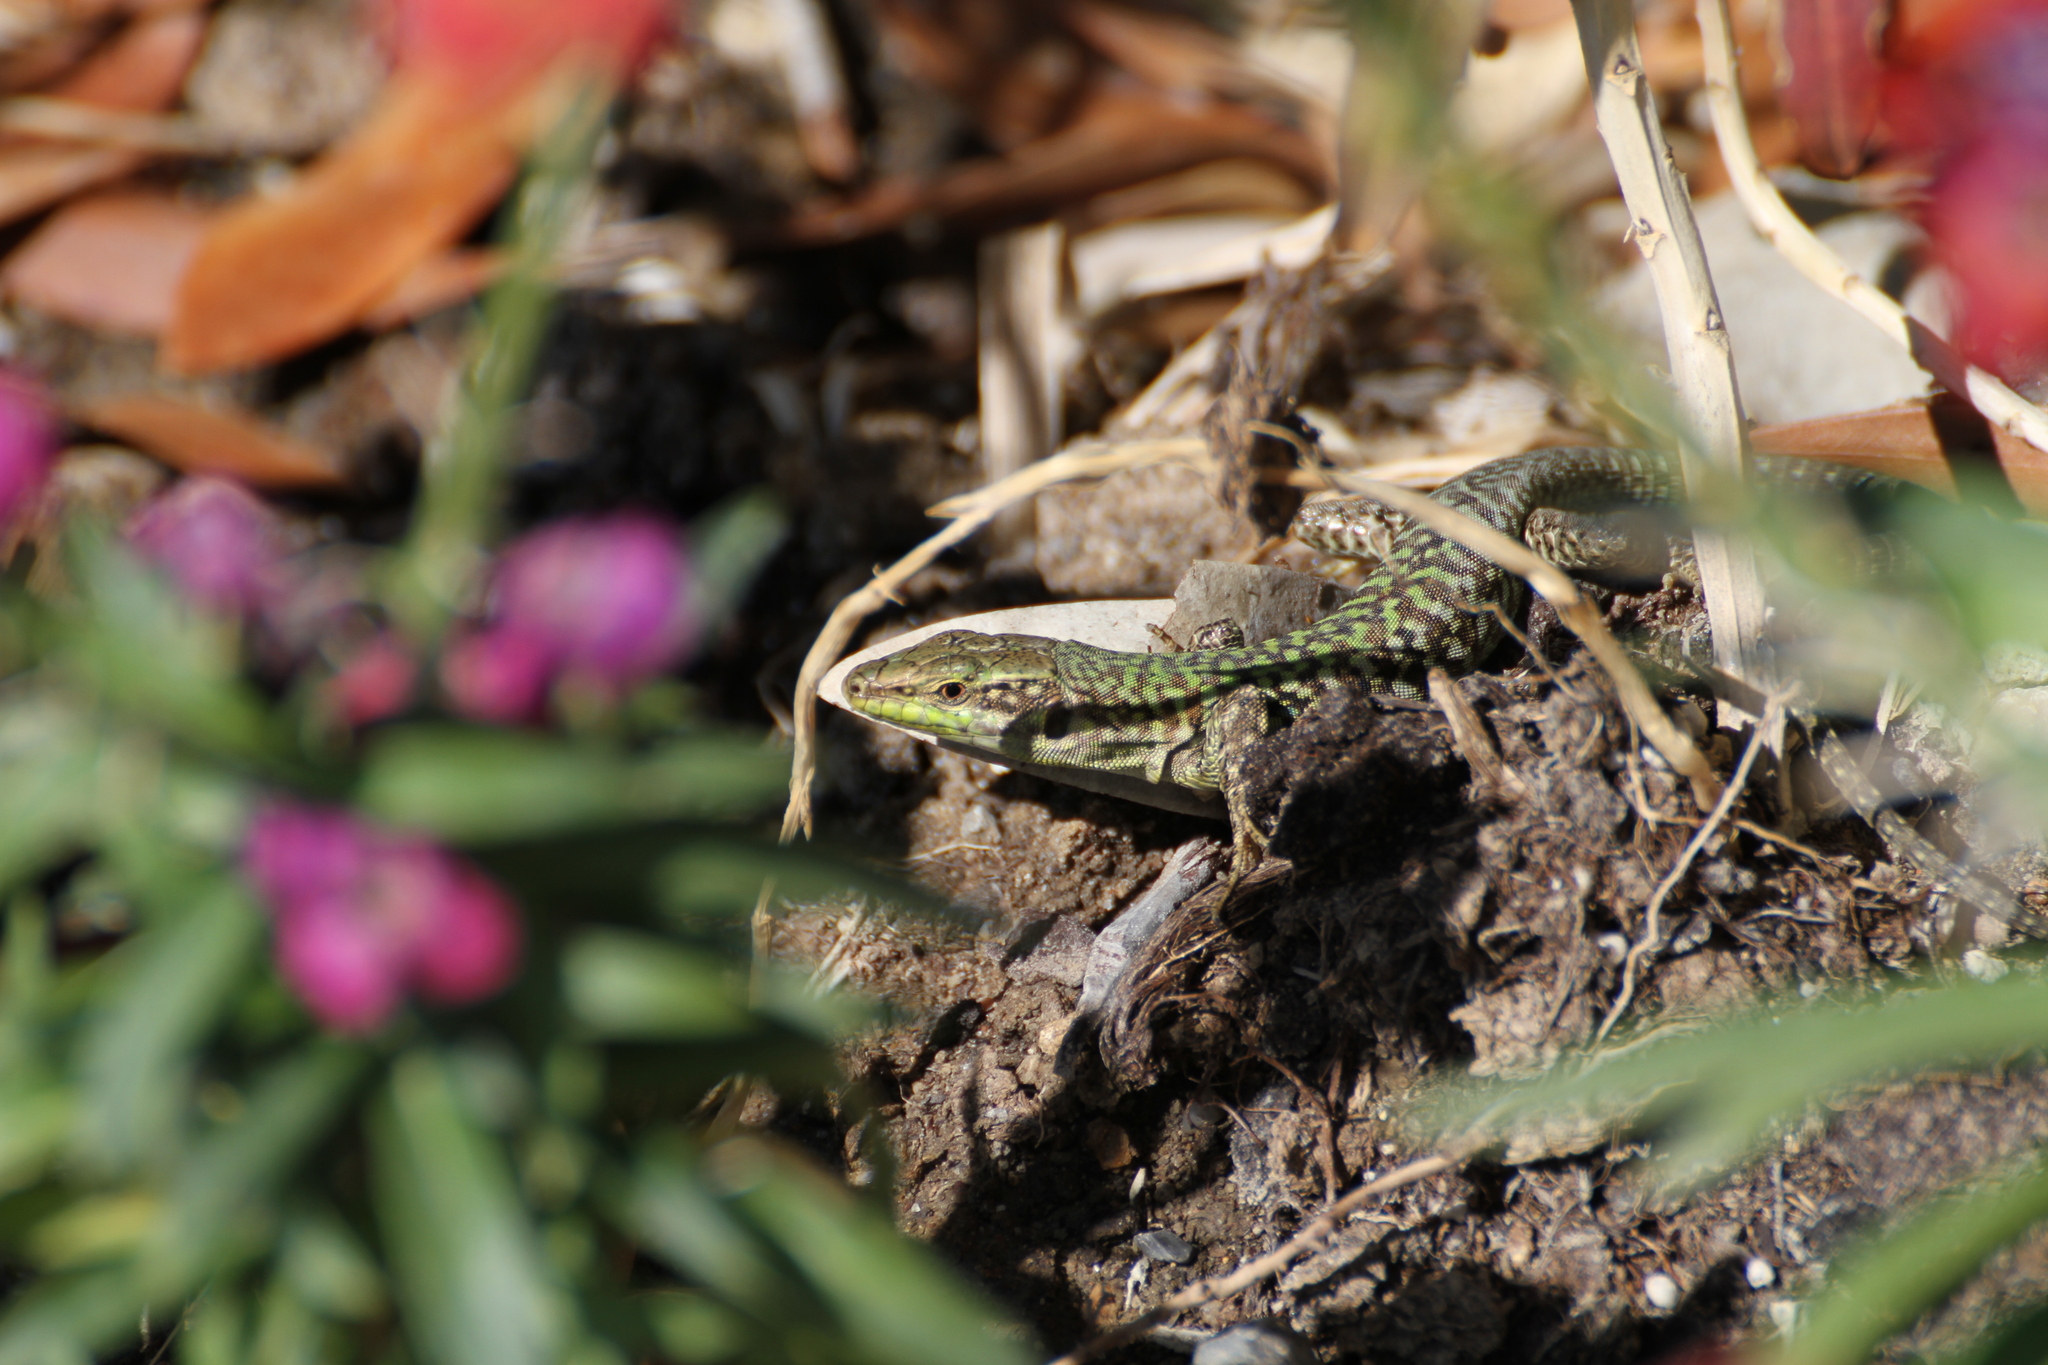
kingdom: Animalia
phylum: Chordata
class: Squamata
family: Lacertidae
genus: Podarcis
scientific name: Podarcis siculus
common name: Italian wall lizard
